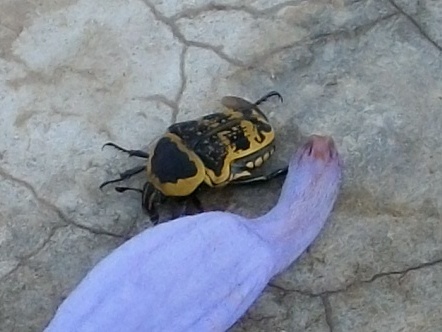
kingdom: Animalia
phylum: Arthropoda
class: Insecta
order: Coleoptera
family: Scarabaeidae
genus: Euryomia
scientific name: Euryomia argentea
